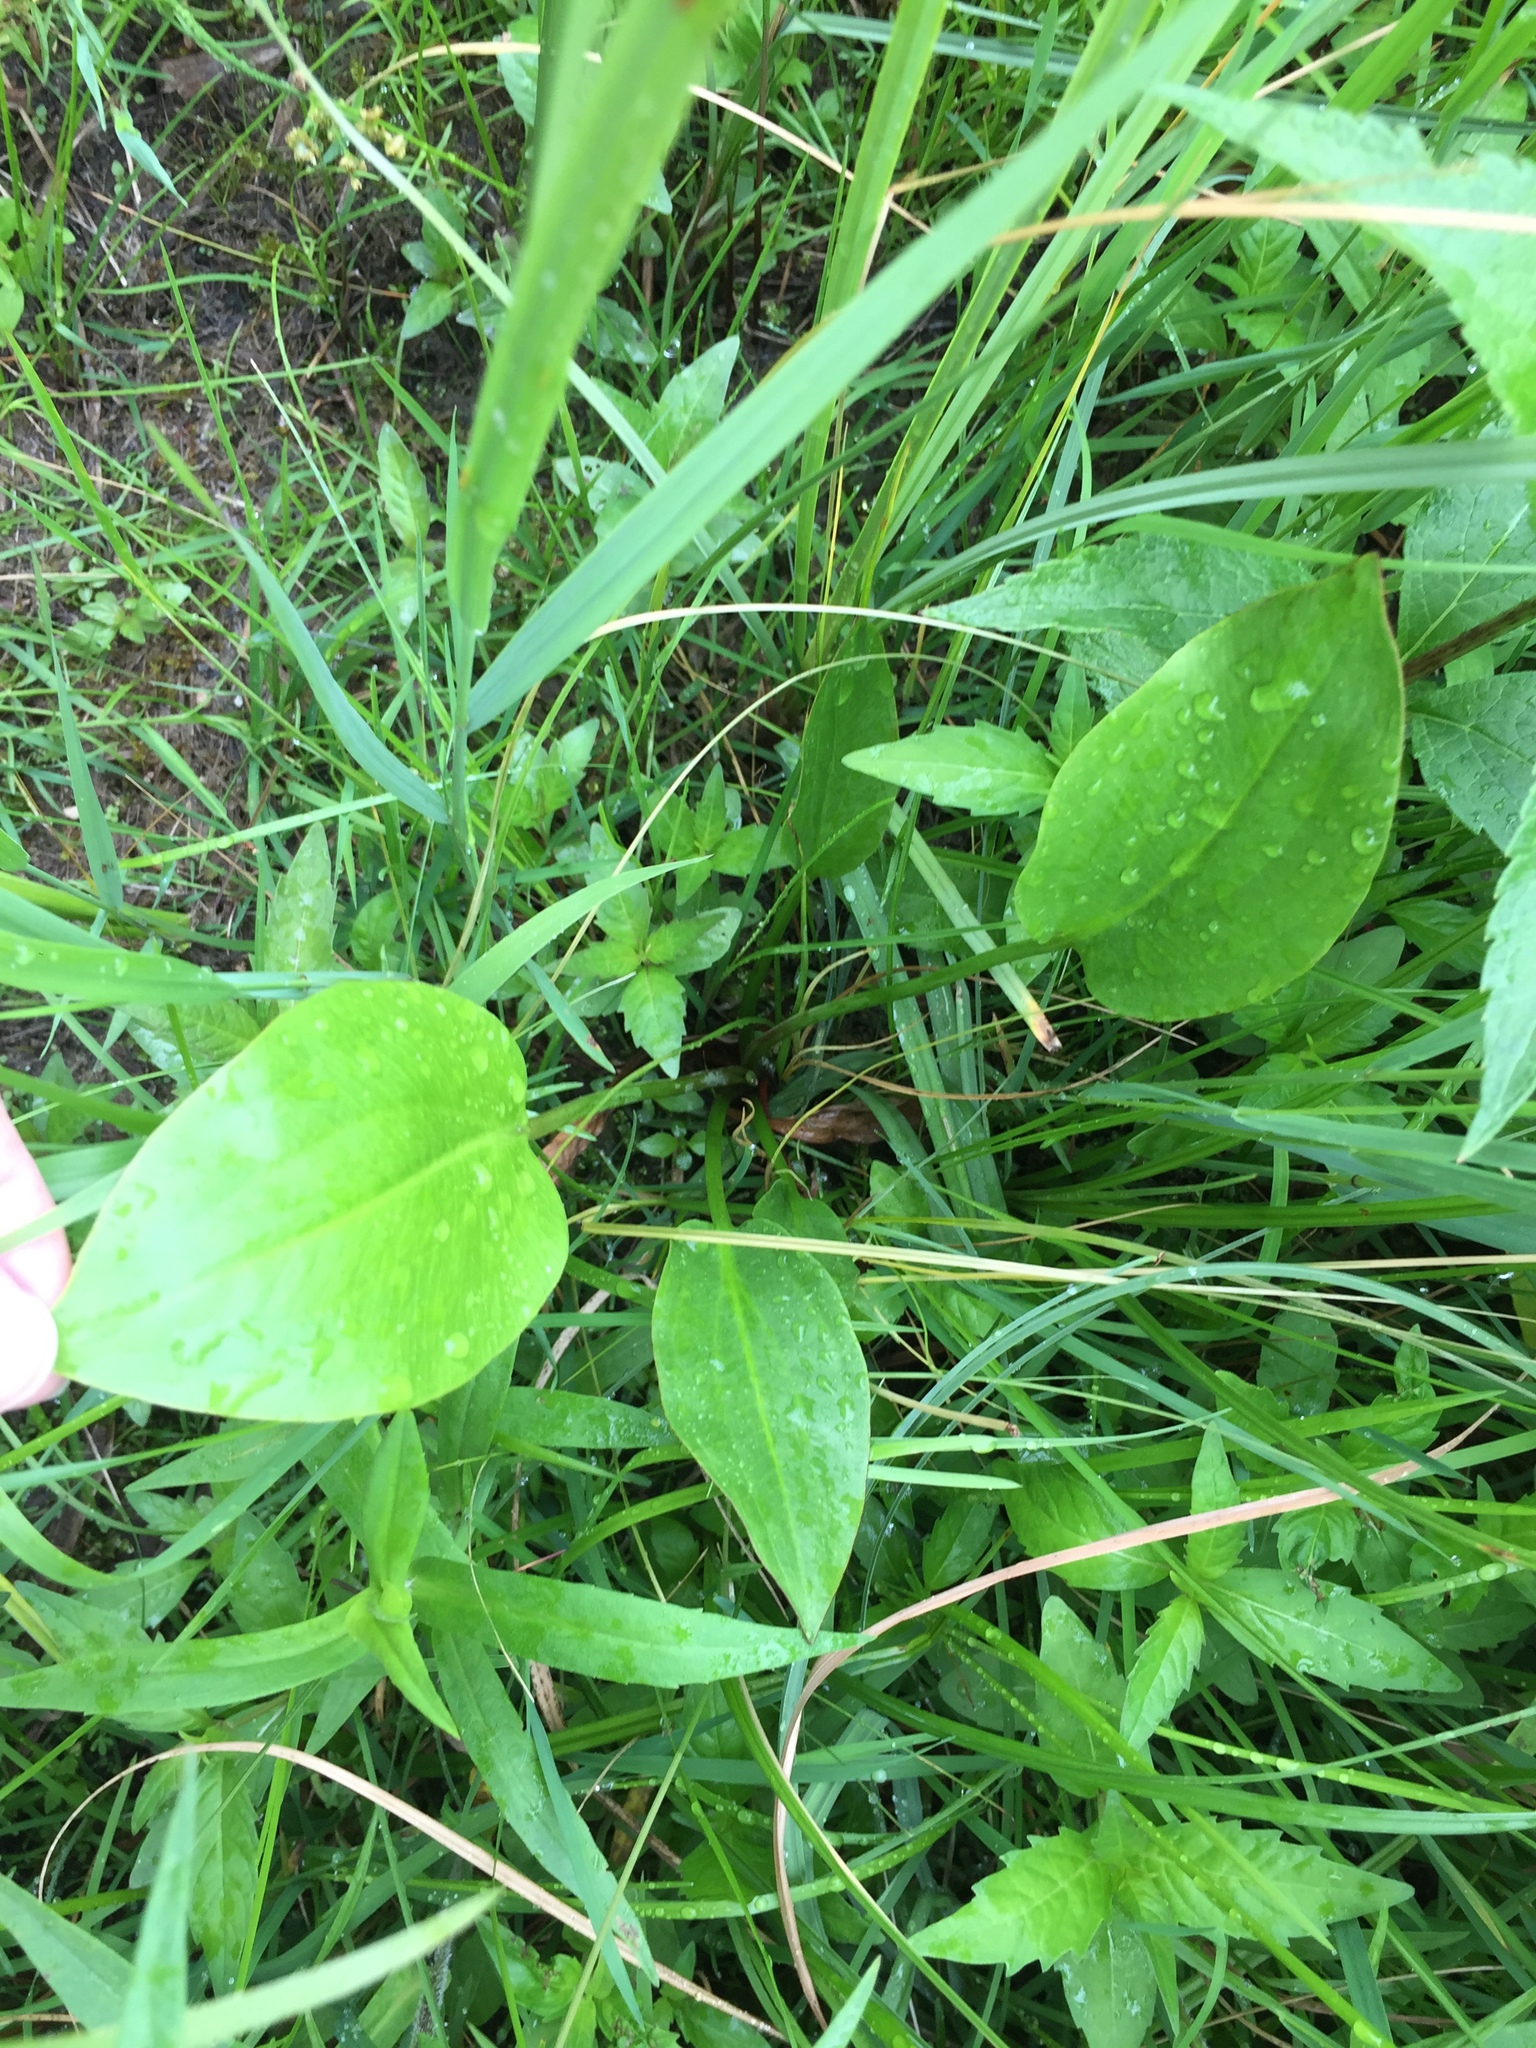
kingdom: Plantae
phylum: Tracheophyta
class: Liliopsida
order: Alismatales
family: Alismataceae
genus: Alisma
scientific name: Alisma triviale
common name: Northern water-plantain
